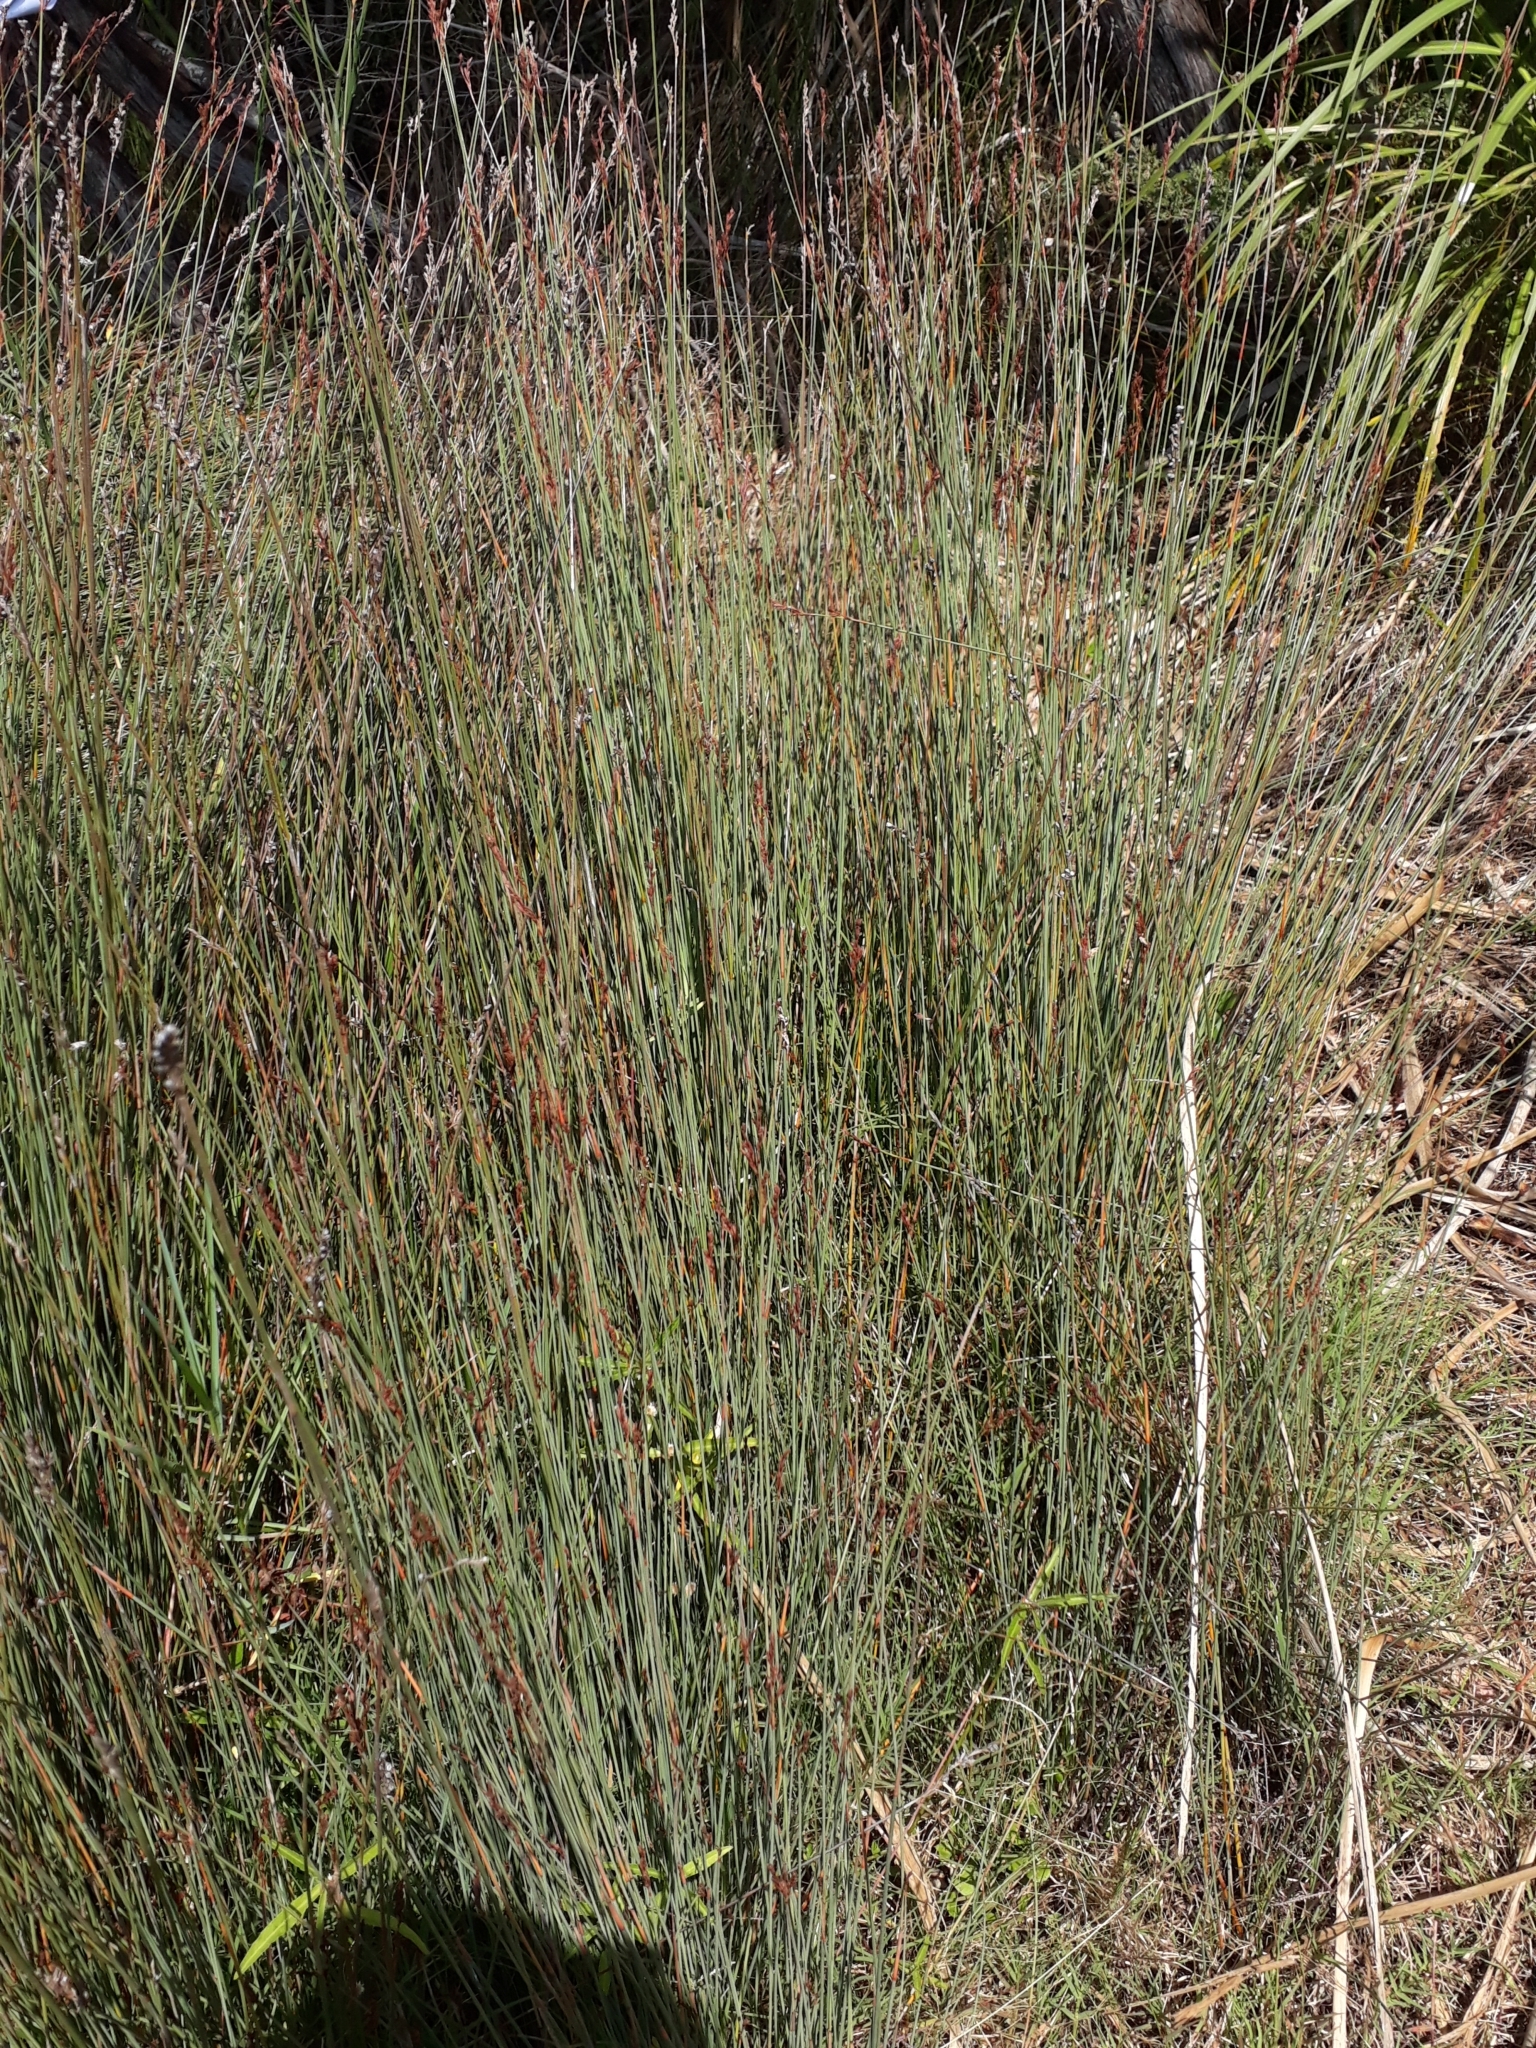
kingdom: Plantae
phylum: Tracheophyta
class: Liliopsida
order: Poales
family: Cyperaceae
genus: Machaerina
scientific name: Machaerina juncea
